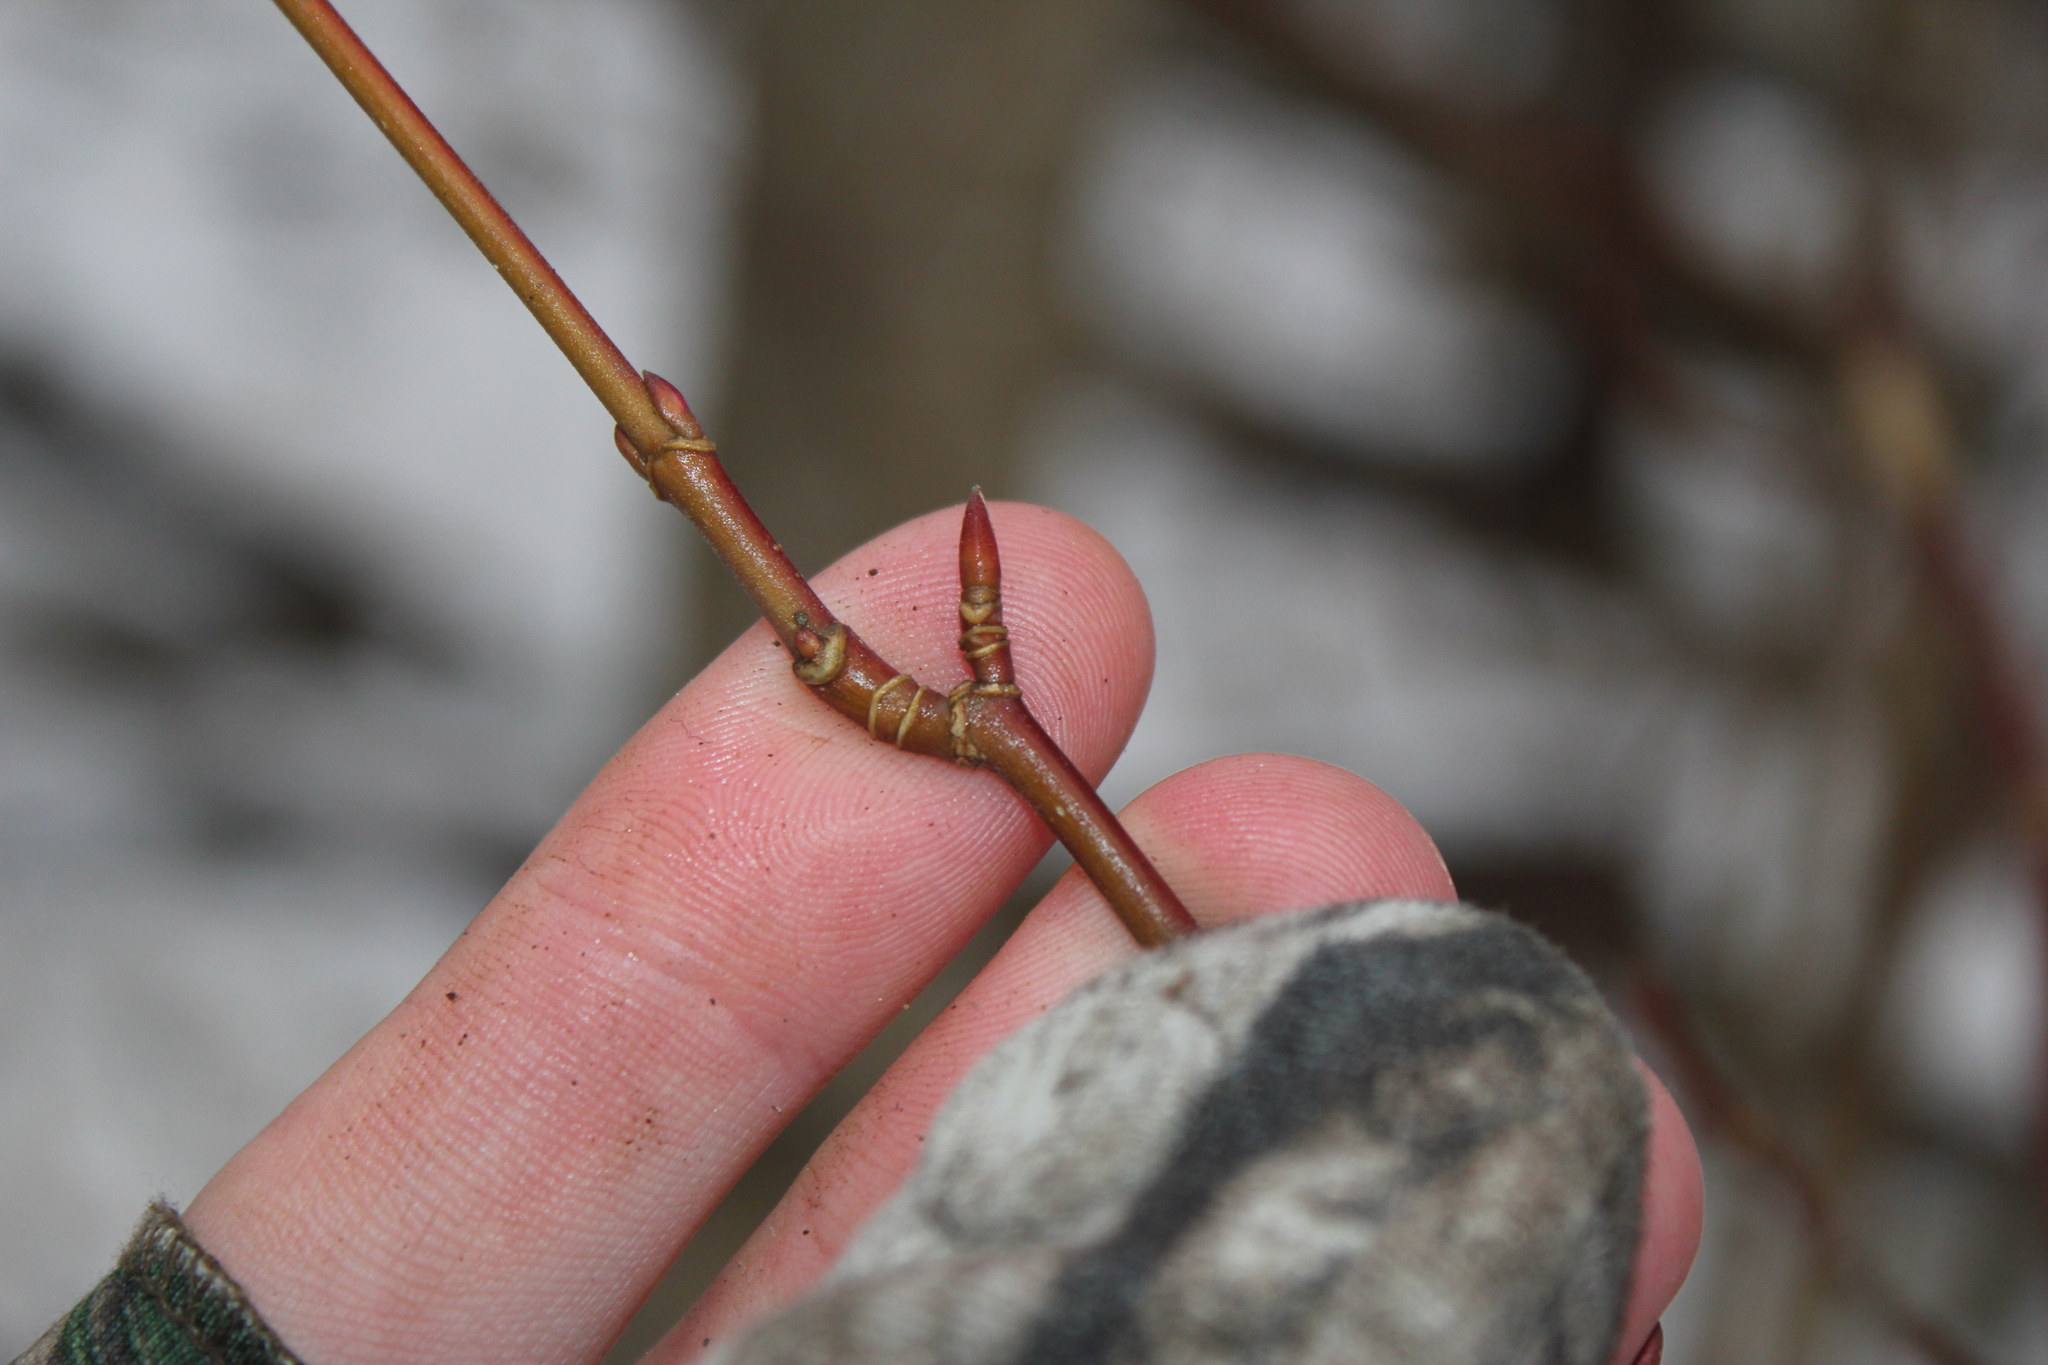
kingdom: Plantae
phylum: Tracheophyta
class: Magnoliopsida
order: Sapindales
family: Sapindaceae
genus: Acer
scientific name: Acer spicatum
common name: Mountain maple
